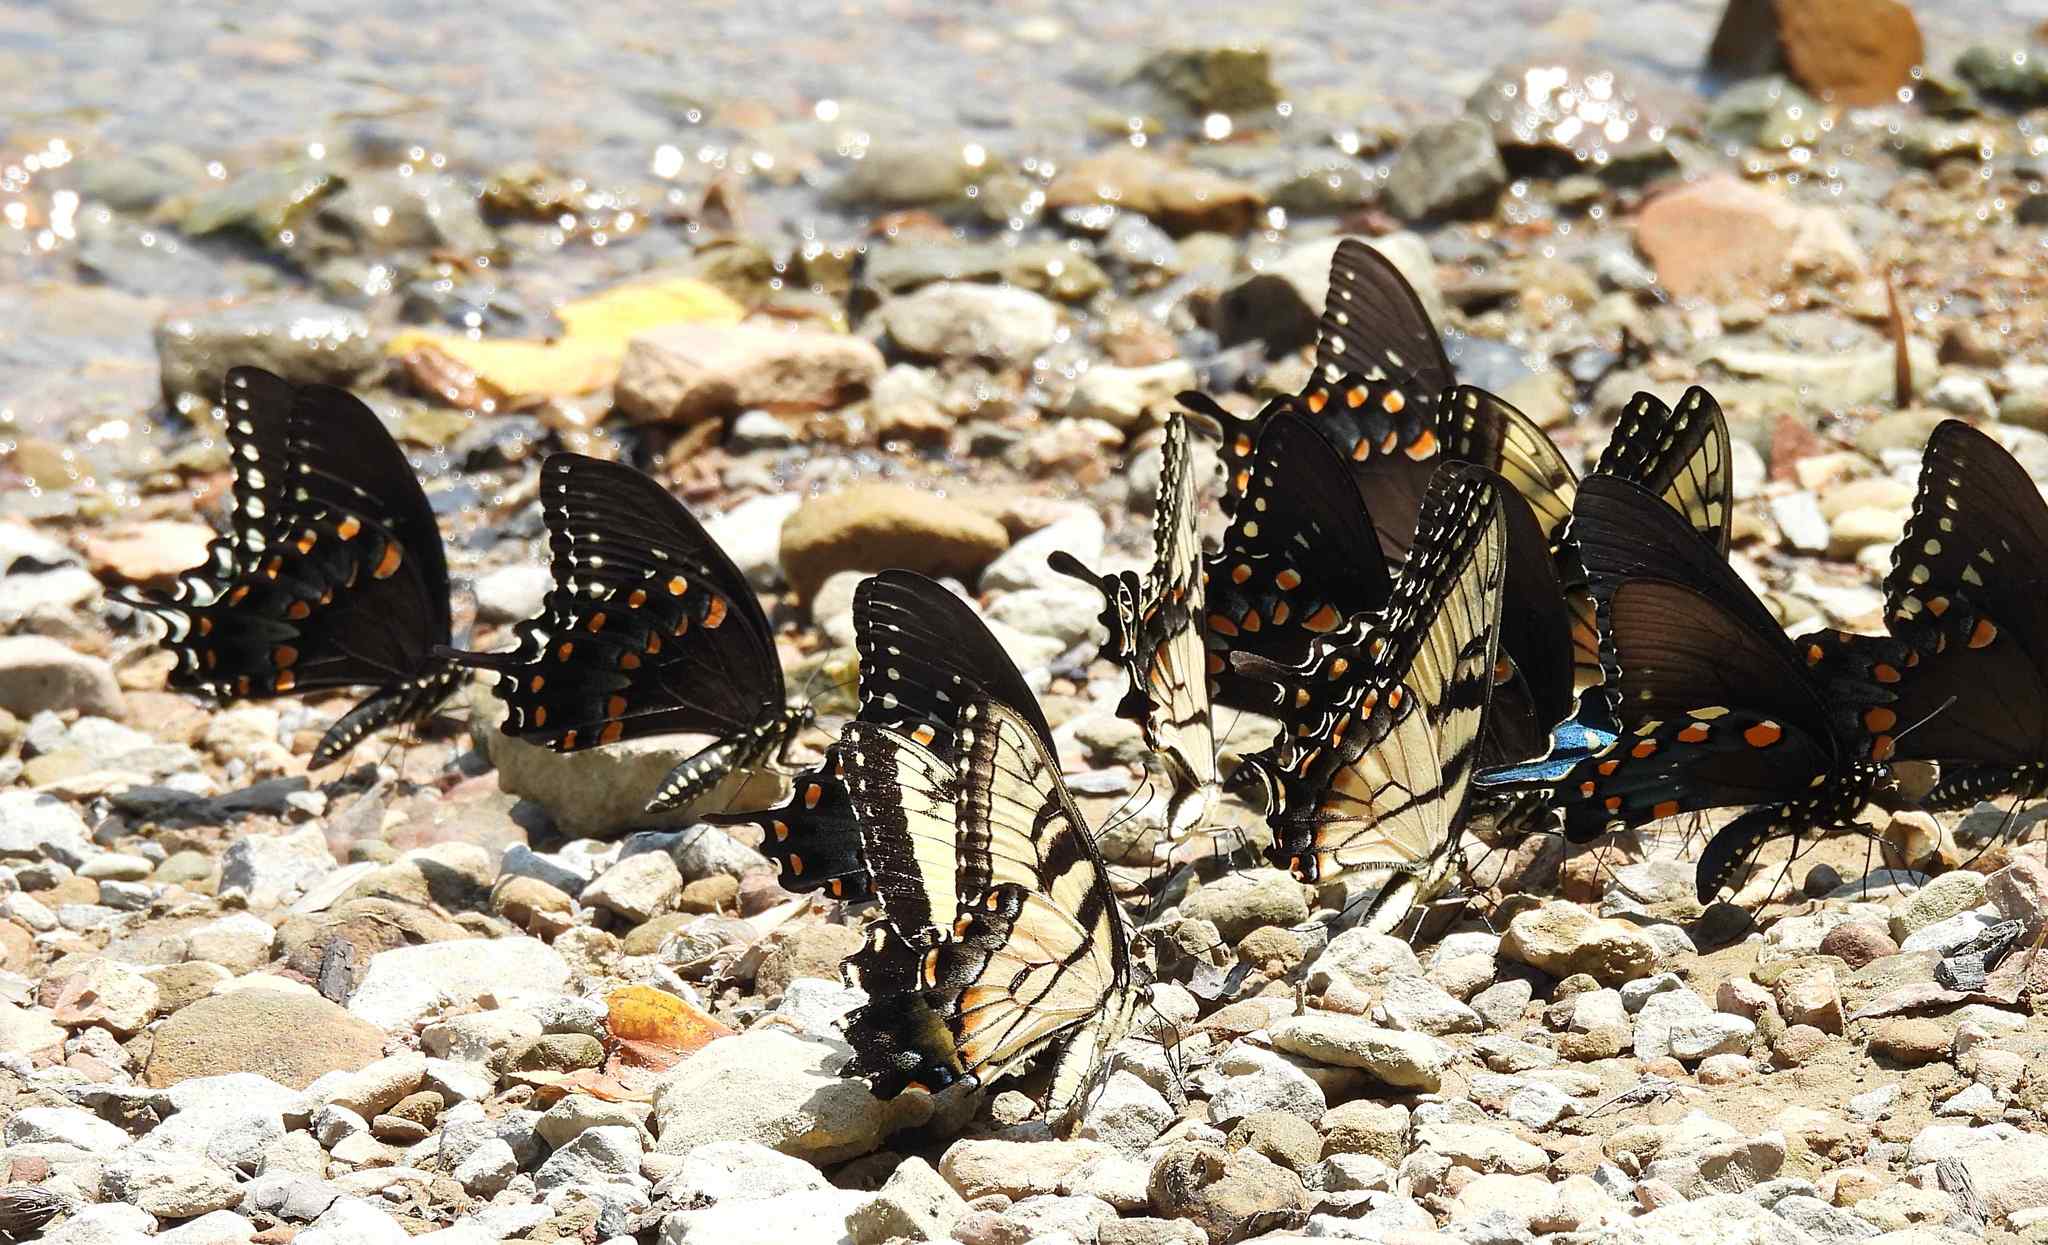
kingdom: Animalia
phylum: Arthropoda
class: Insecta
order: Lepidoptera
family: Papilionidae
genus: Papilio
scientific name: Papilio glaucus
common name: Tiger swallowtail
